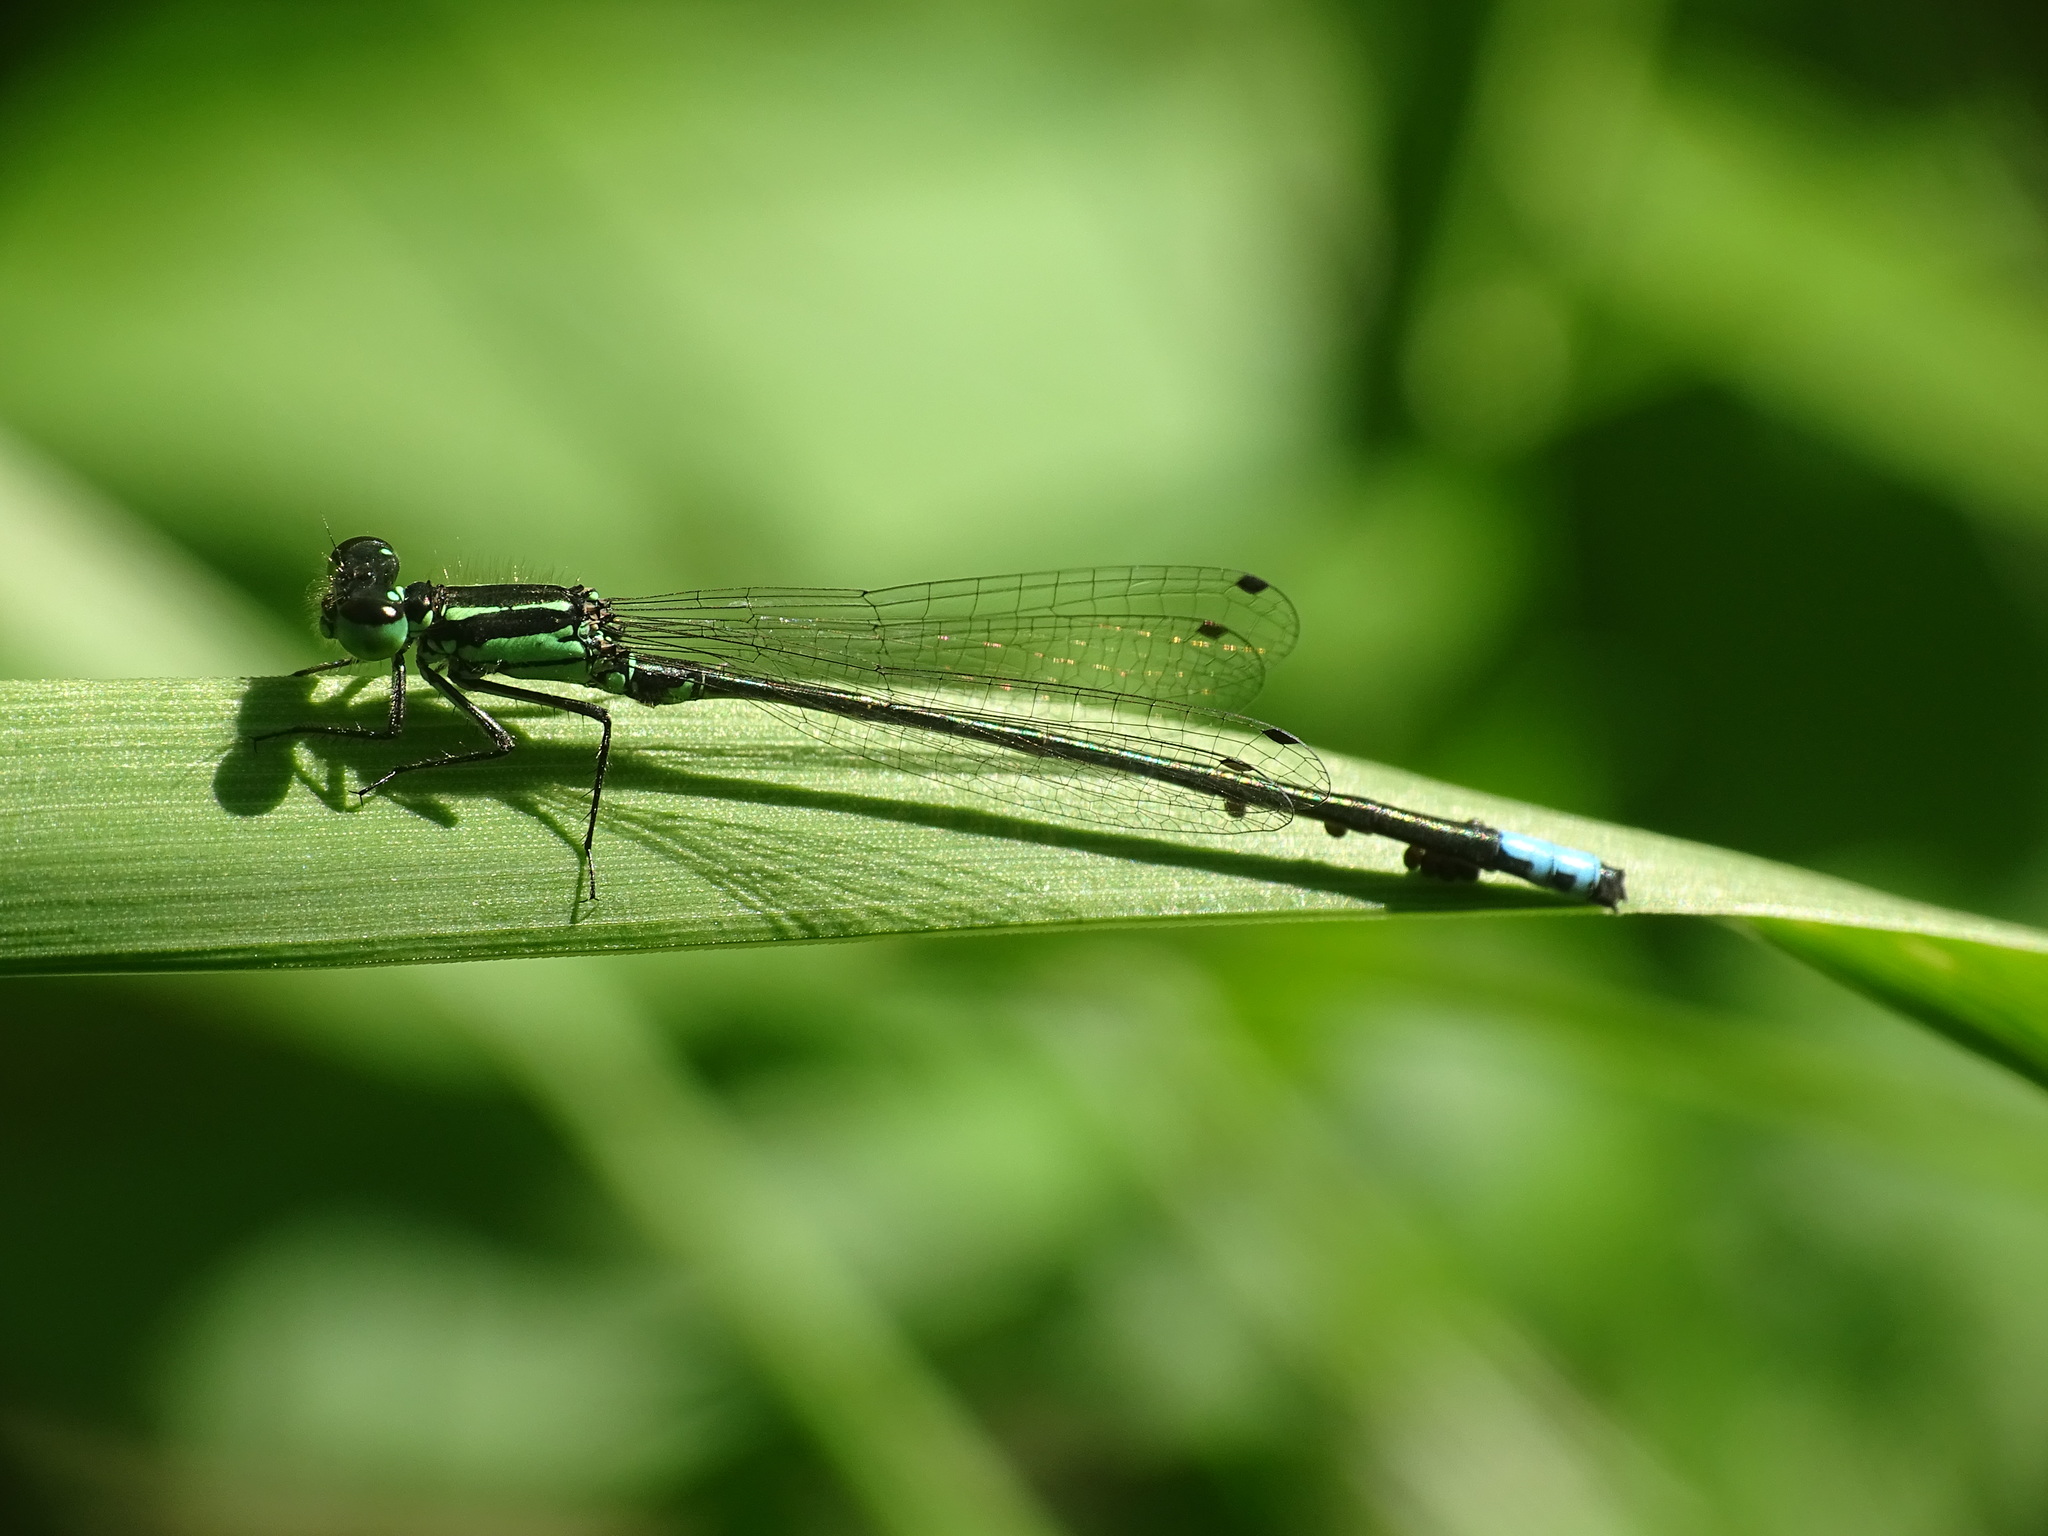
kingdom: Animalia
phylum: Arthropoda
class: Insecta
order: Odonata
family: Coenagrionidae
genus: Ischnura
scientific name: Ischnura verticalis
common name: Eastern forktail
